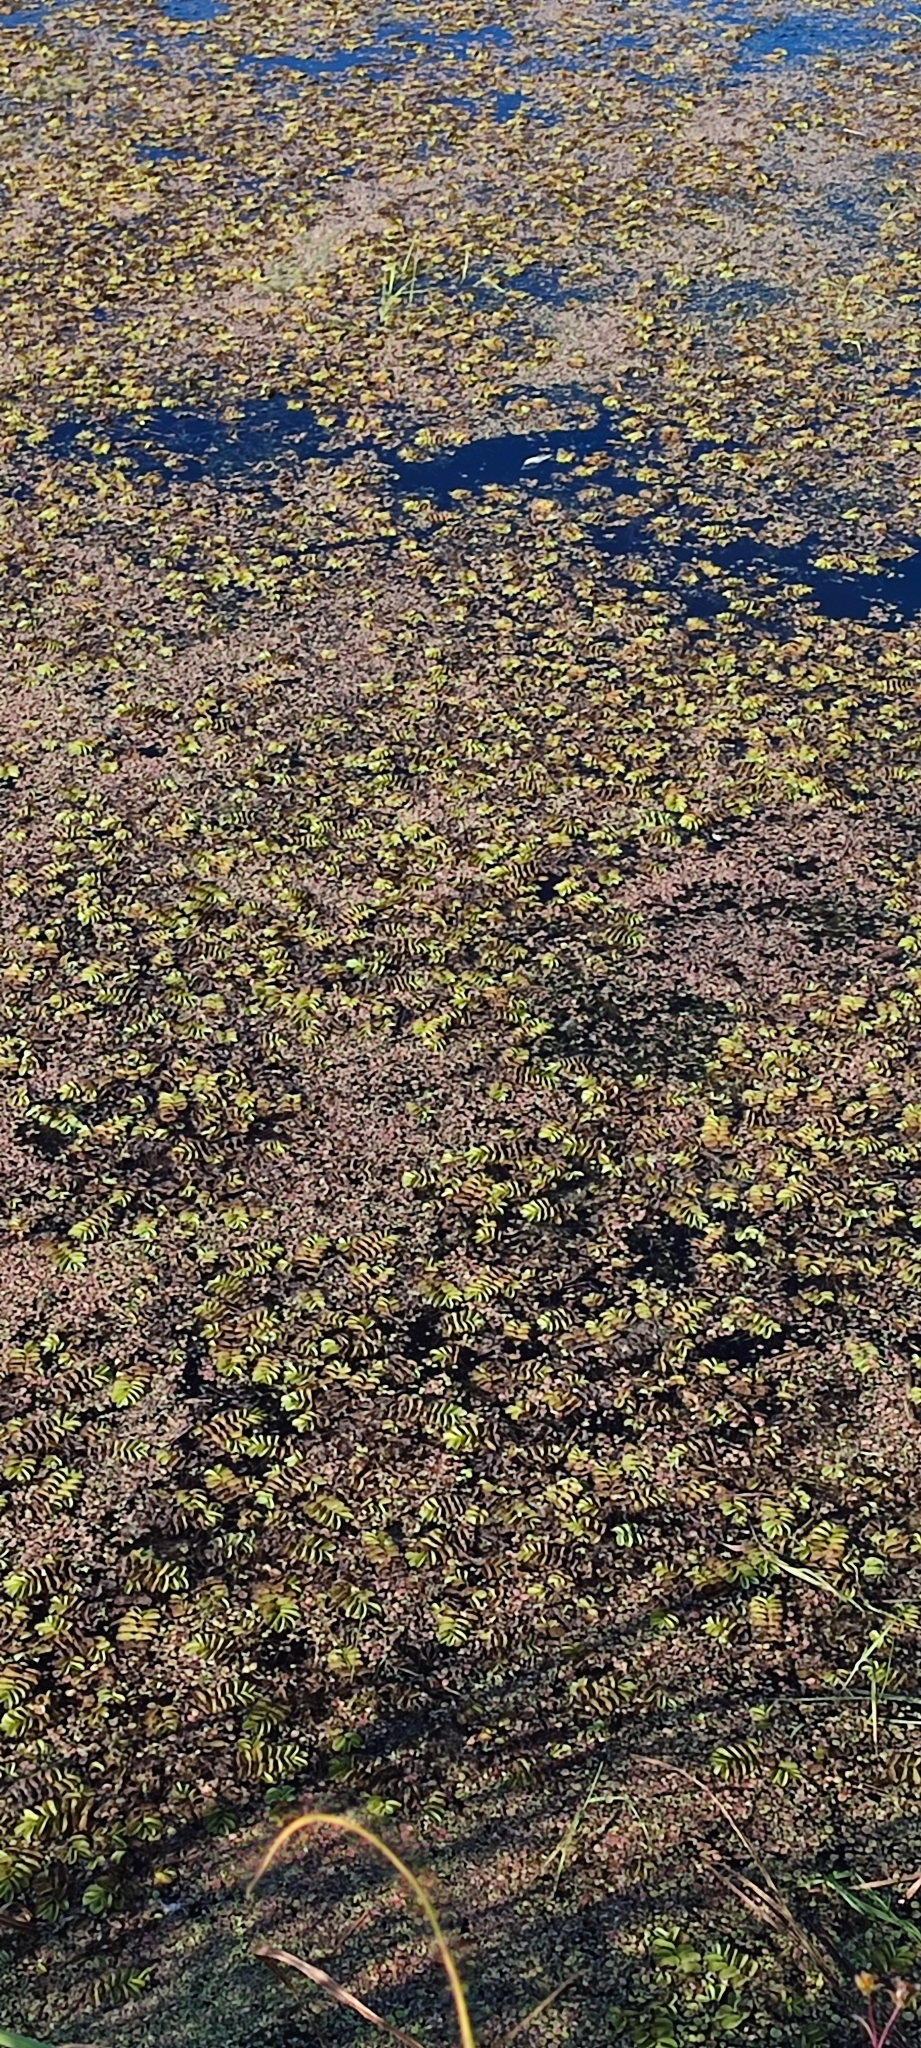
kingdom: Plantae
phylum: Tracheophyta
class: Polypodiopsida
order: Salviniales
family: Salviniaceae
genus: Salvinia
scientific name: Salvinia natans
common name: Floating fern
